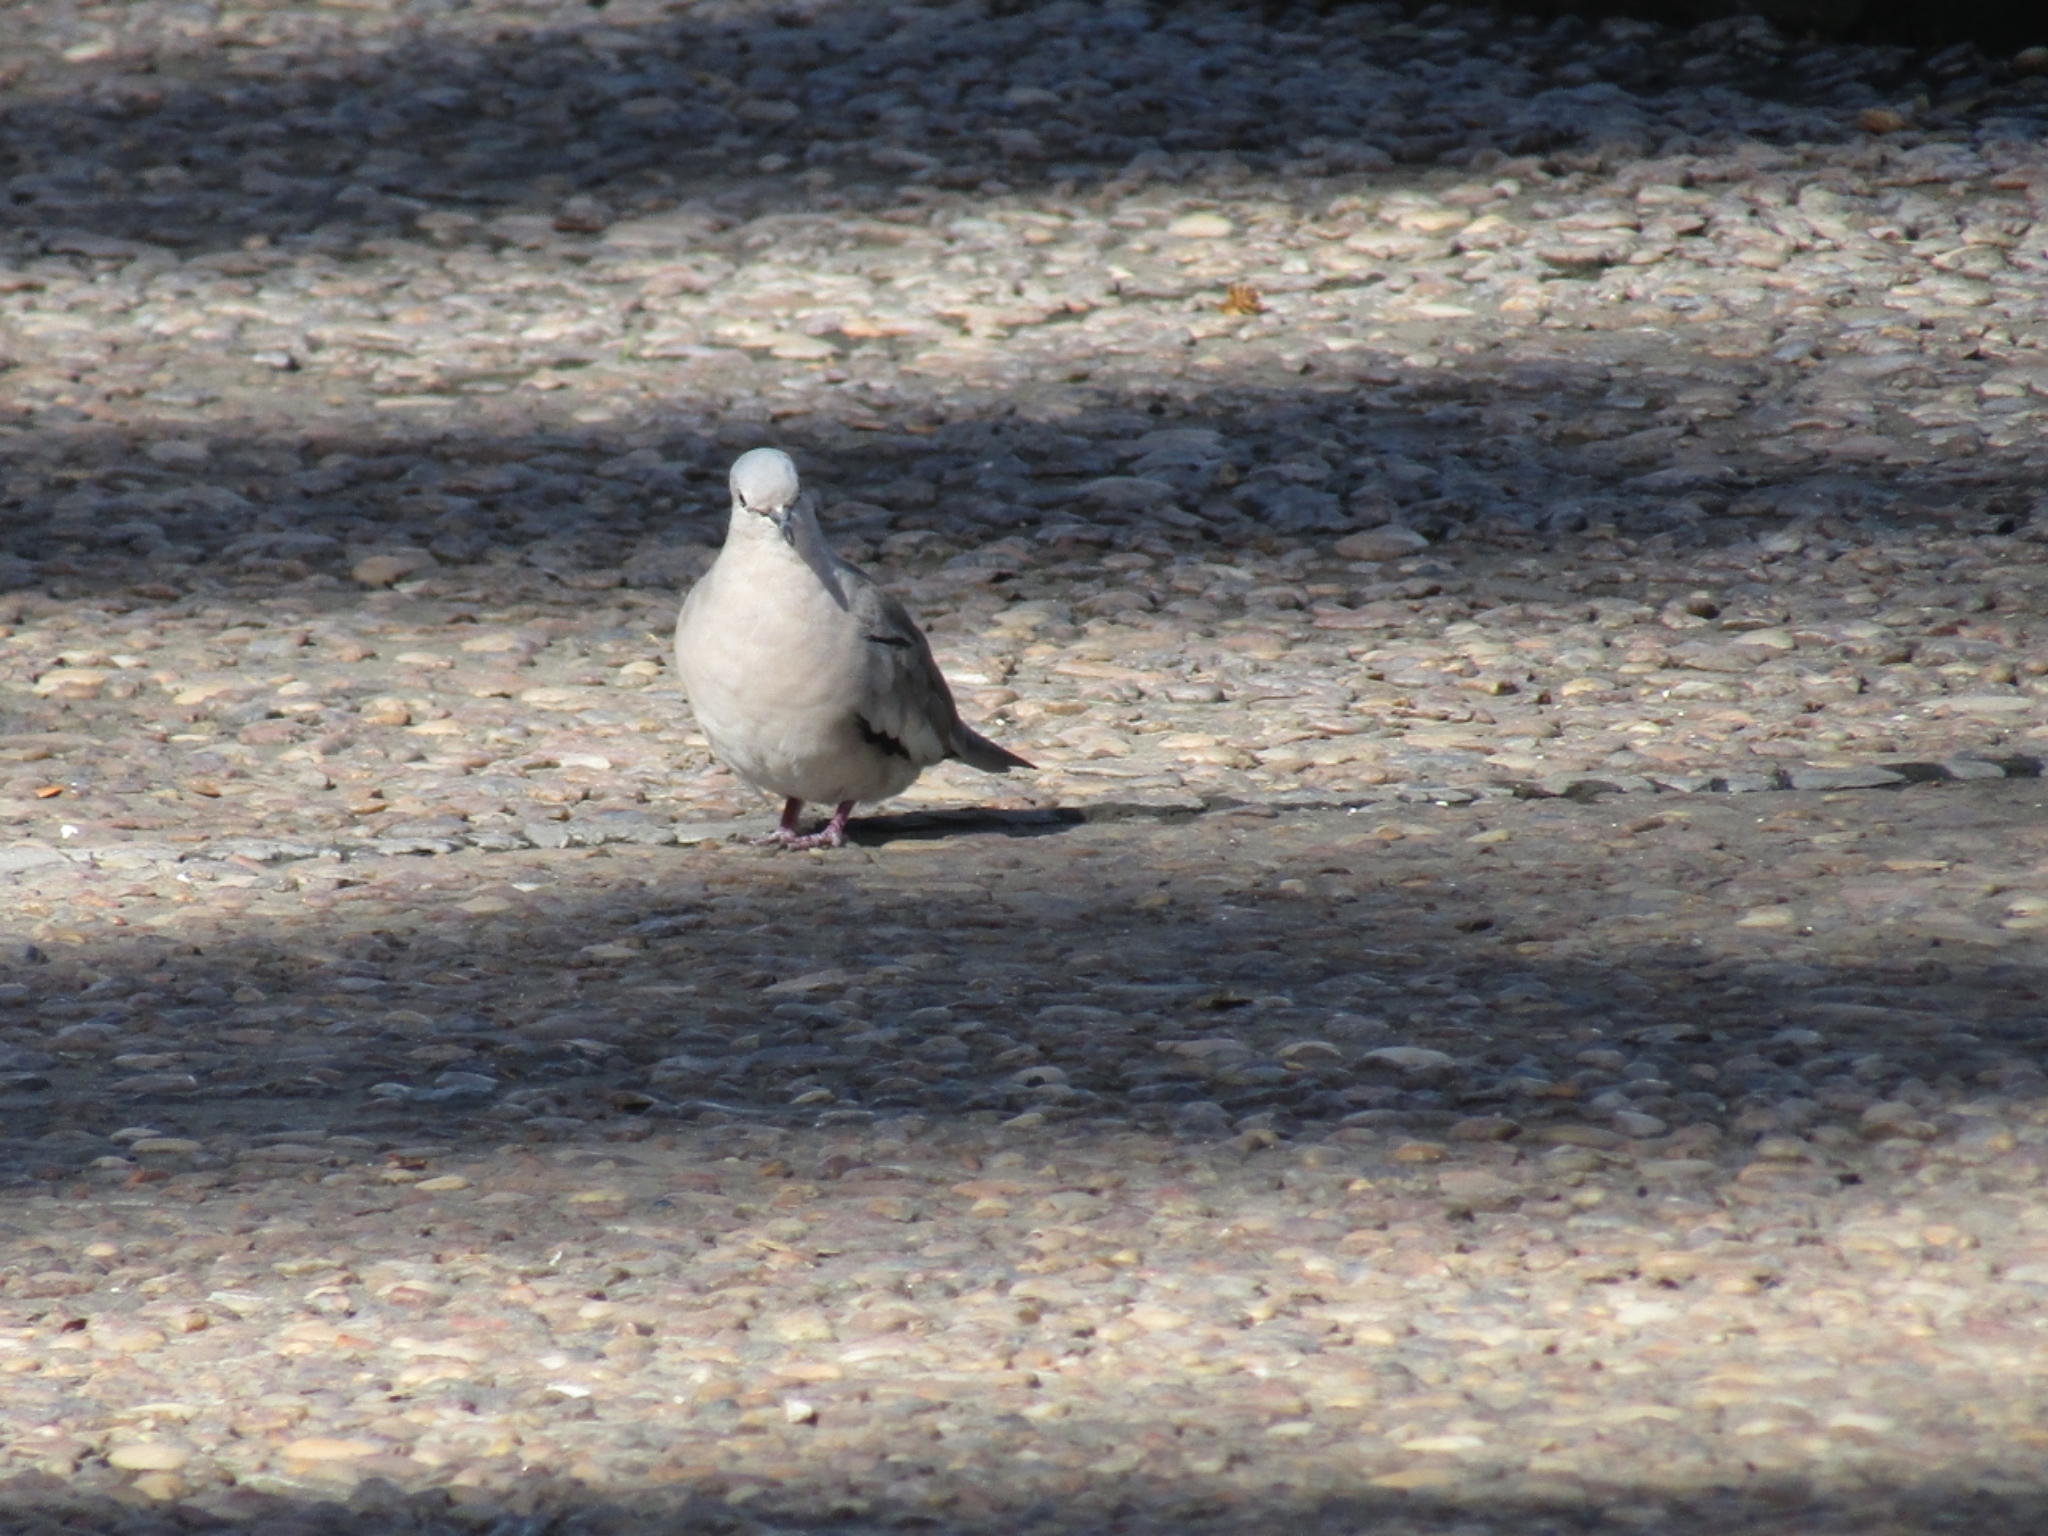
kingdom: Animalia
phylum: Chordata
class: Aves
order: Columbiformes
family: Columbidae
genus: Columbina
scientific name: Columbina picui
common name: Picui ground dove
